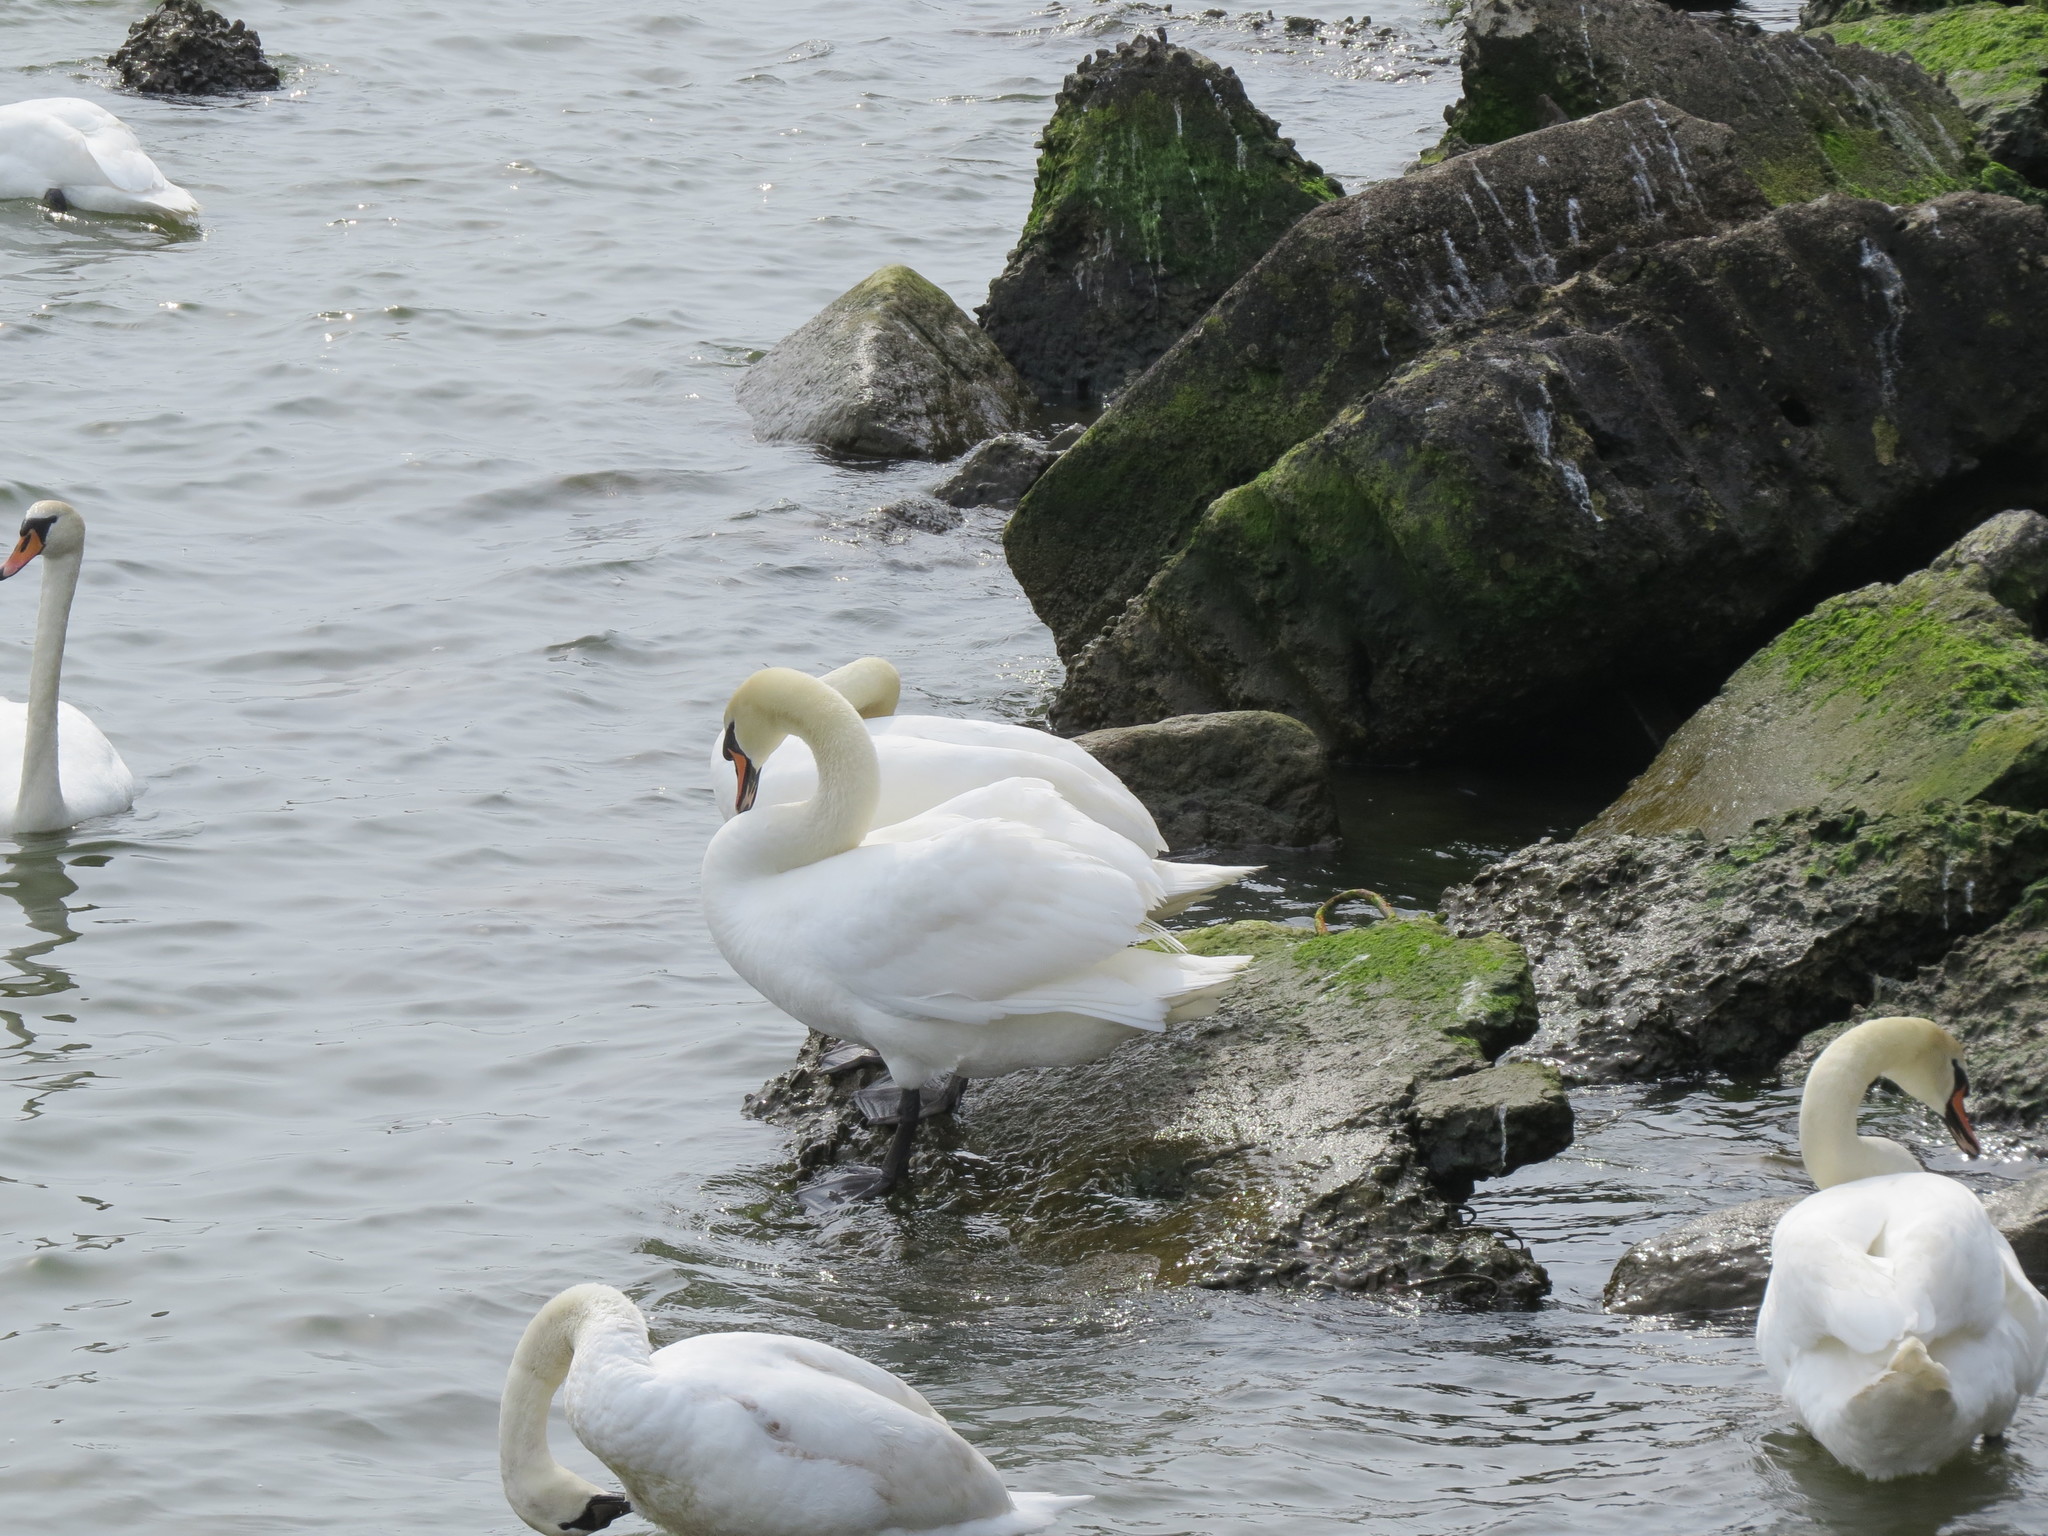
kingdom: Animalia
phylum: Chordata
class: Aves
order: Anseriformes
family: Anatidae
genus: Cygnus
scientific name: Cygnus olor
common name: Mute swan
